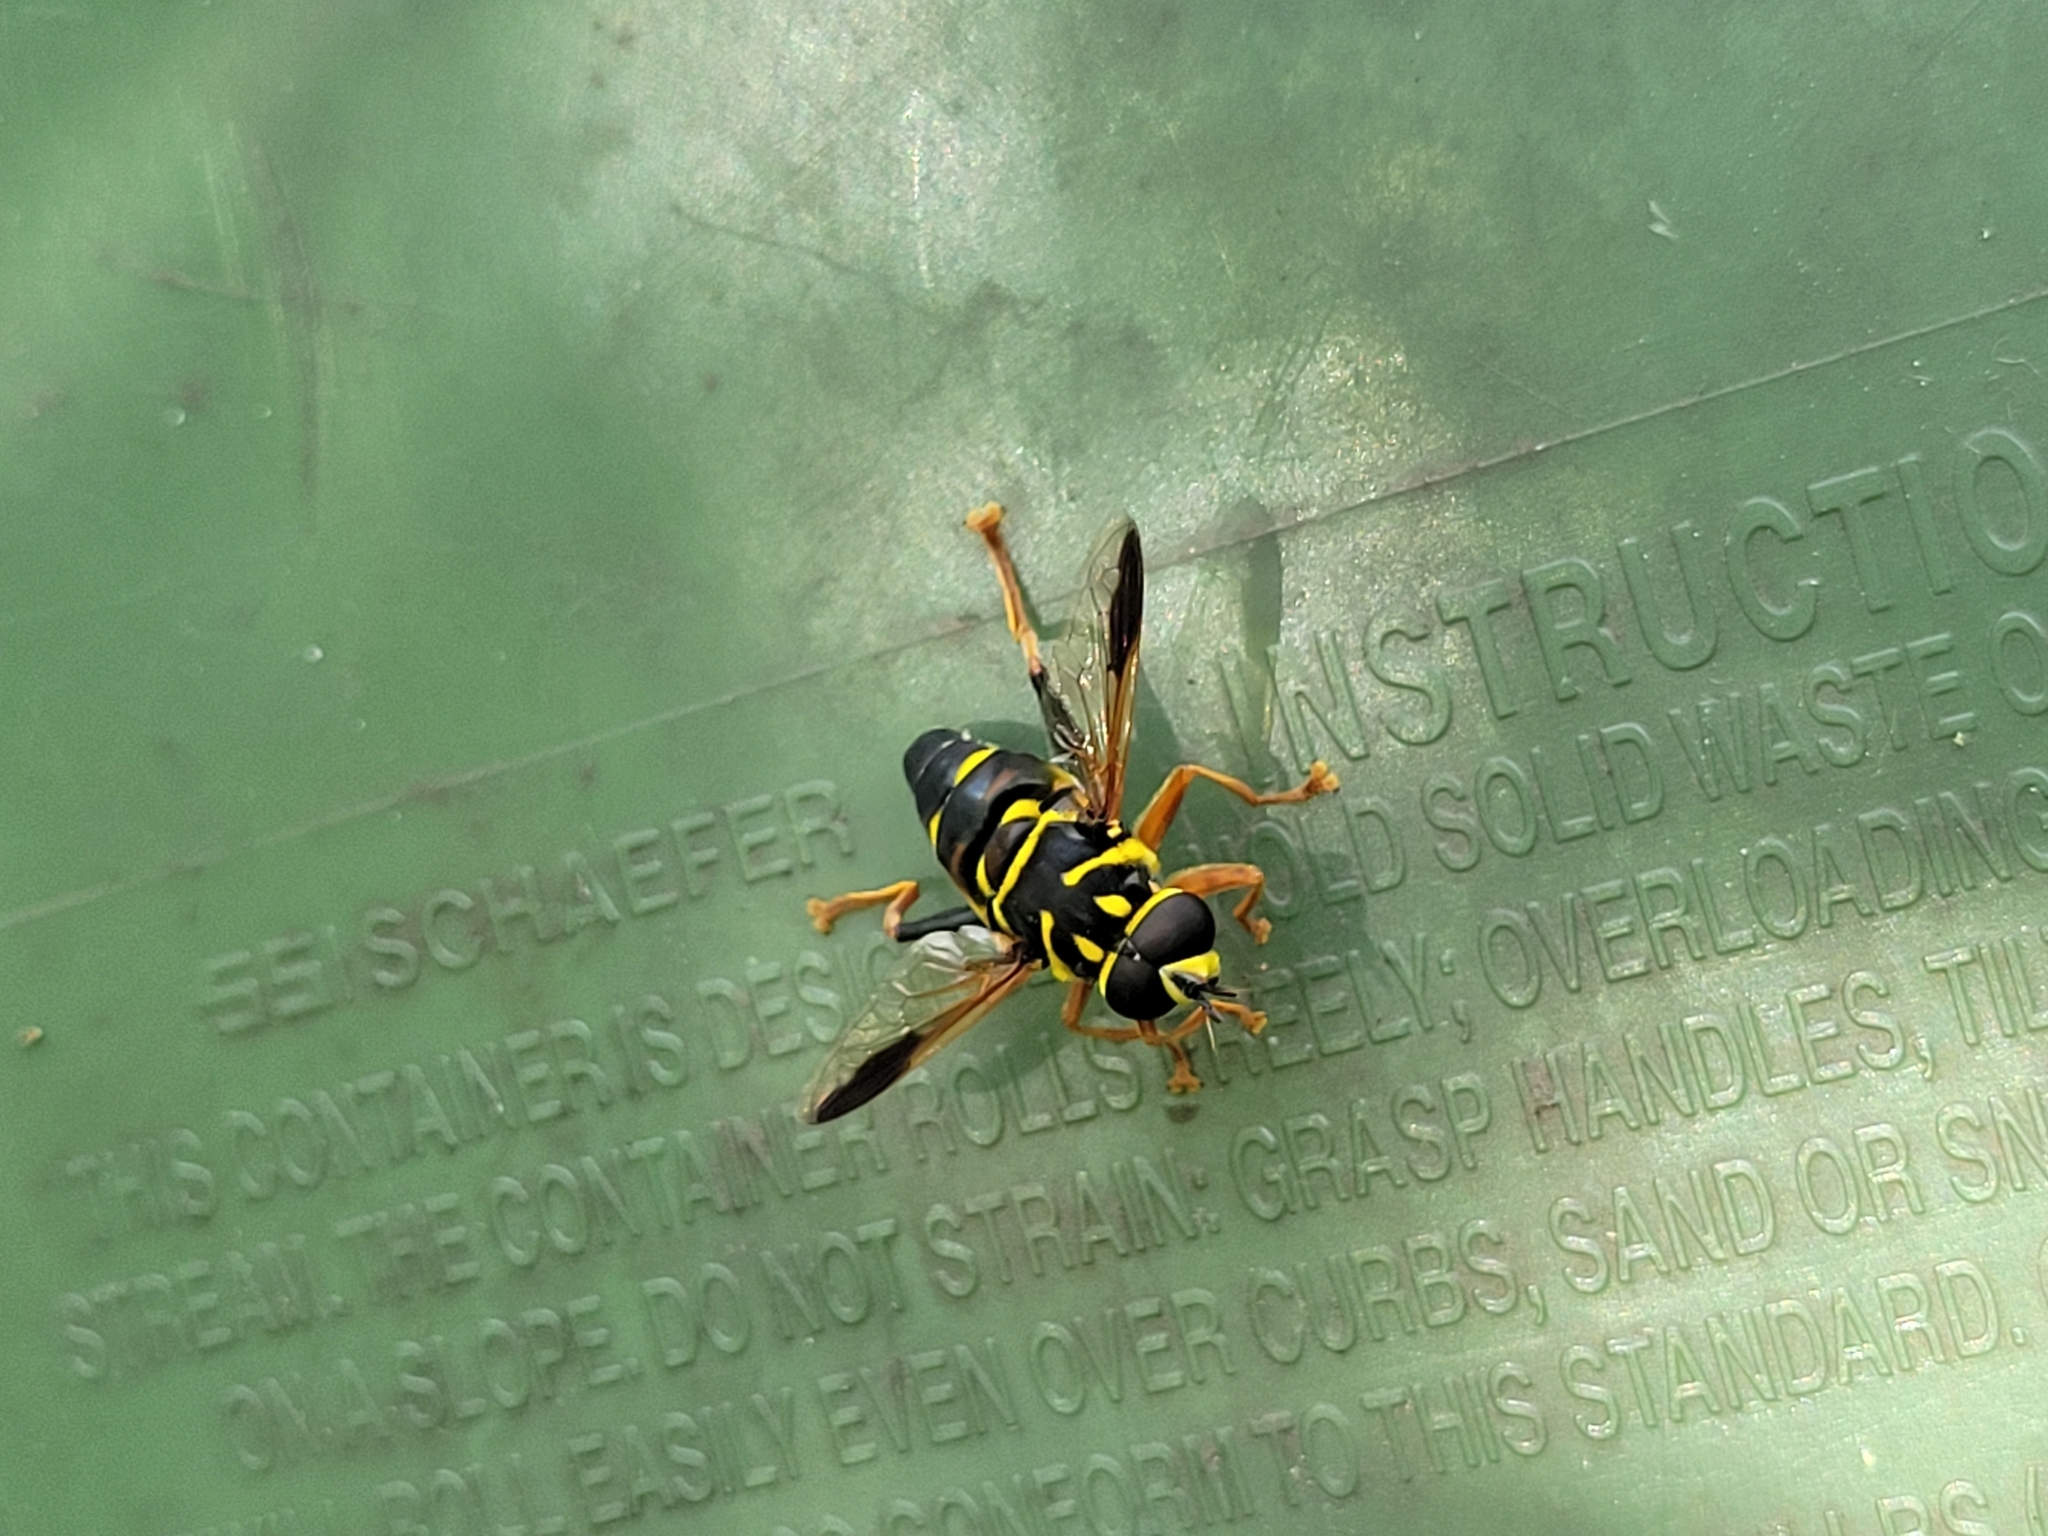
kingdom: Animalia
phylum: Arthropoda
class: Insecta
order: Diptera
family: Syrphidae
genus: Meromacrus
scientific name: Meromacrus acutus
